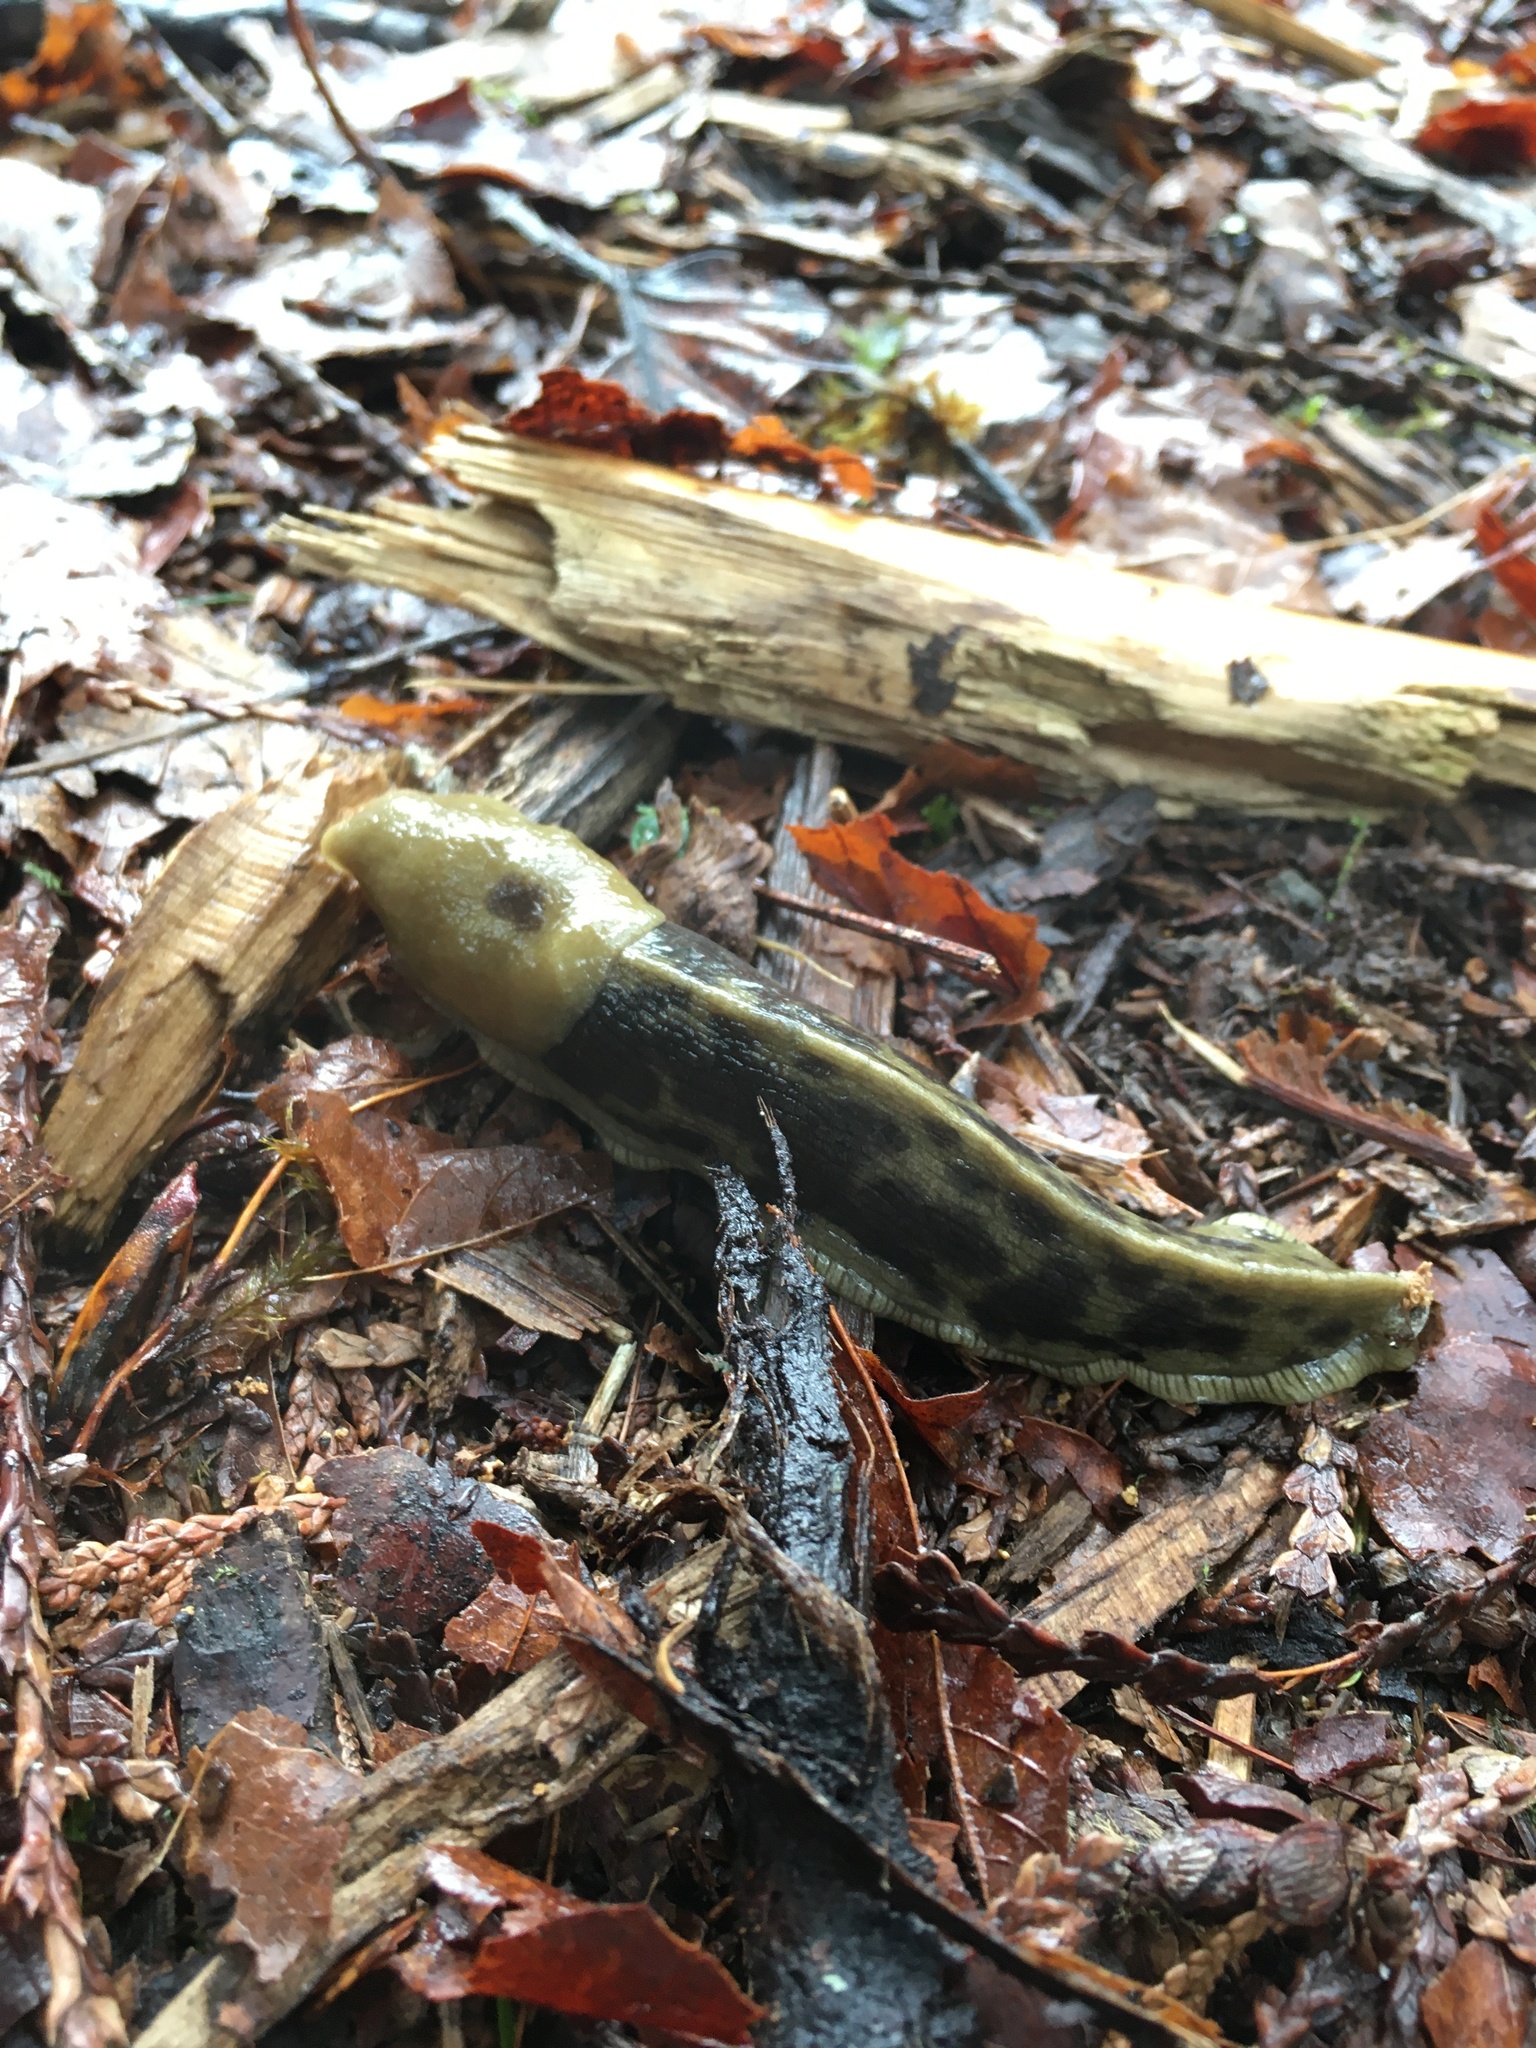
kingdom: Animalia
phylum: Mollusca
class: Gastropoda
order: Stylommatophora
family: Ariolimacidae
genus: Ariolimax
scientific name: Ariolimax columbianus
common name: Pacific banana slug
